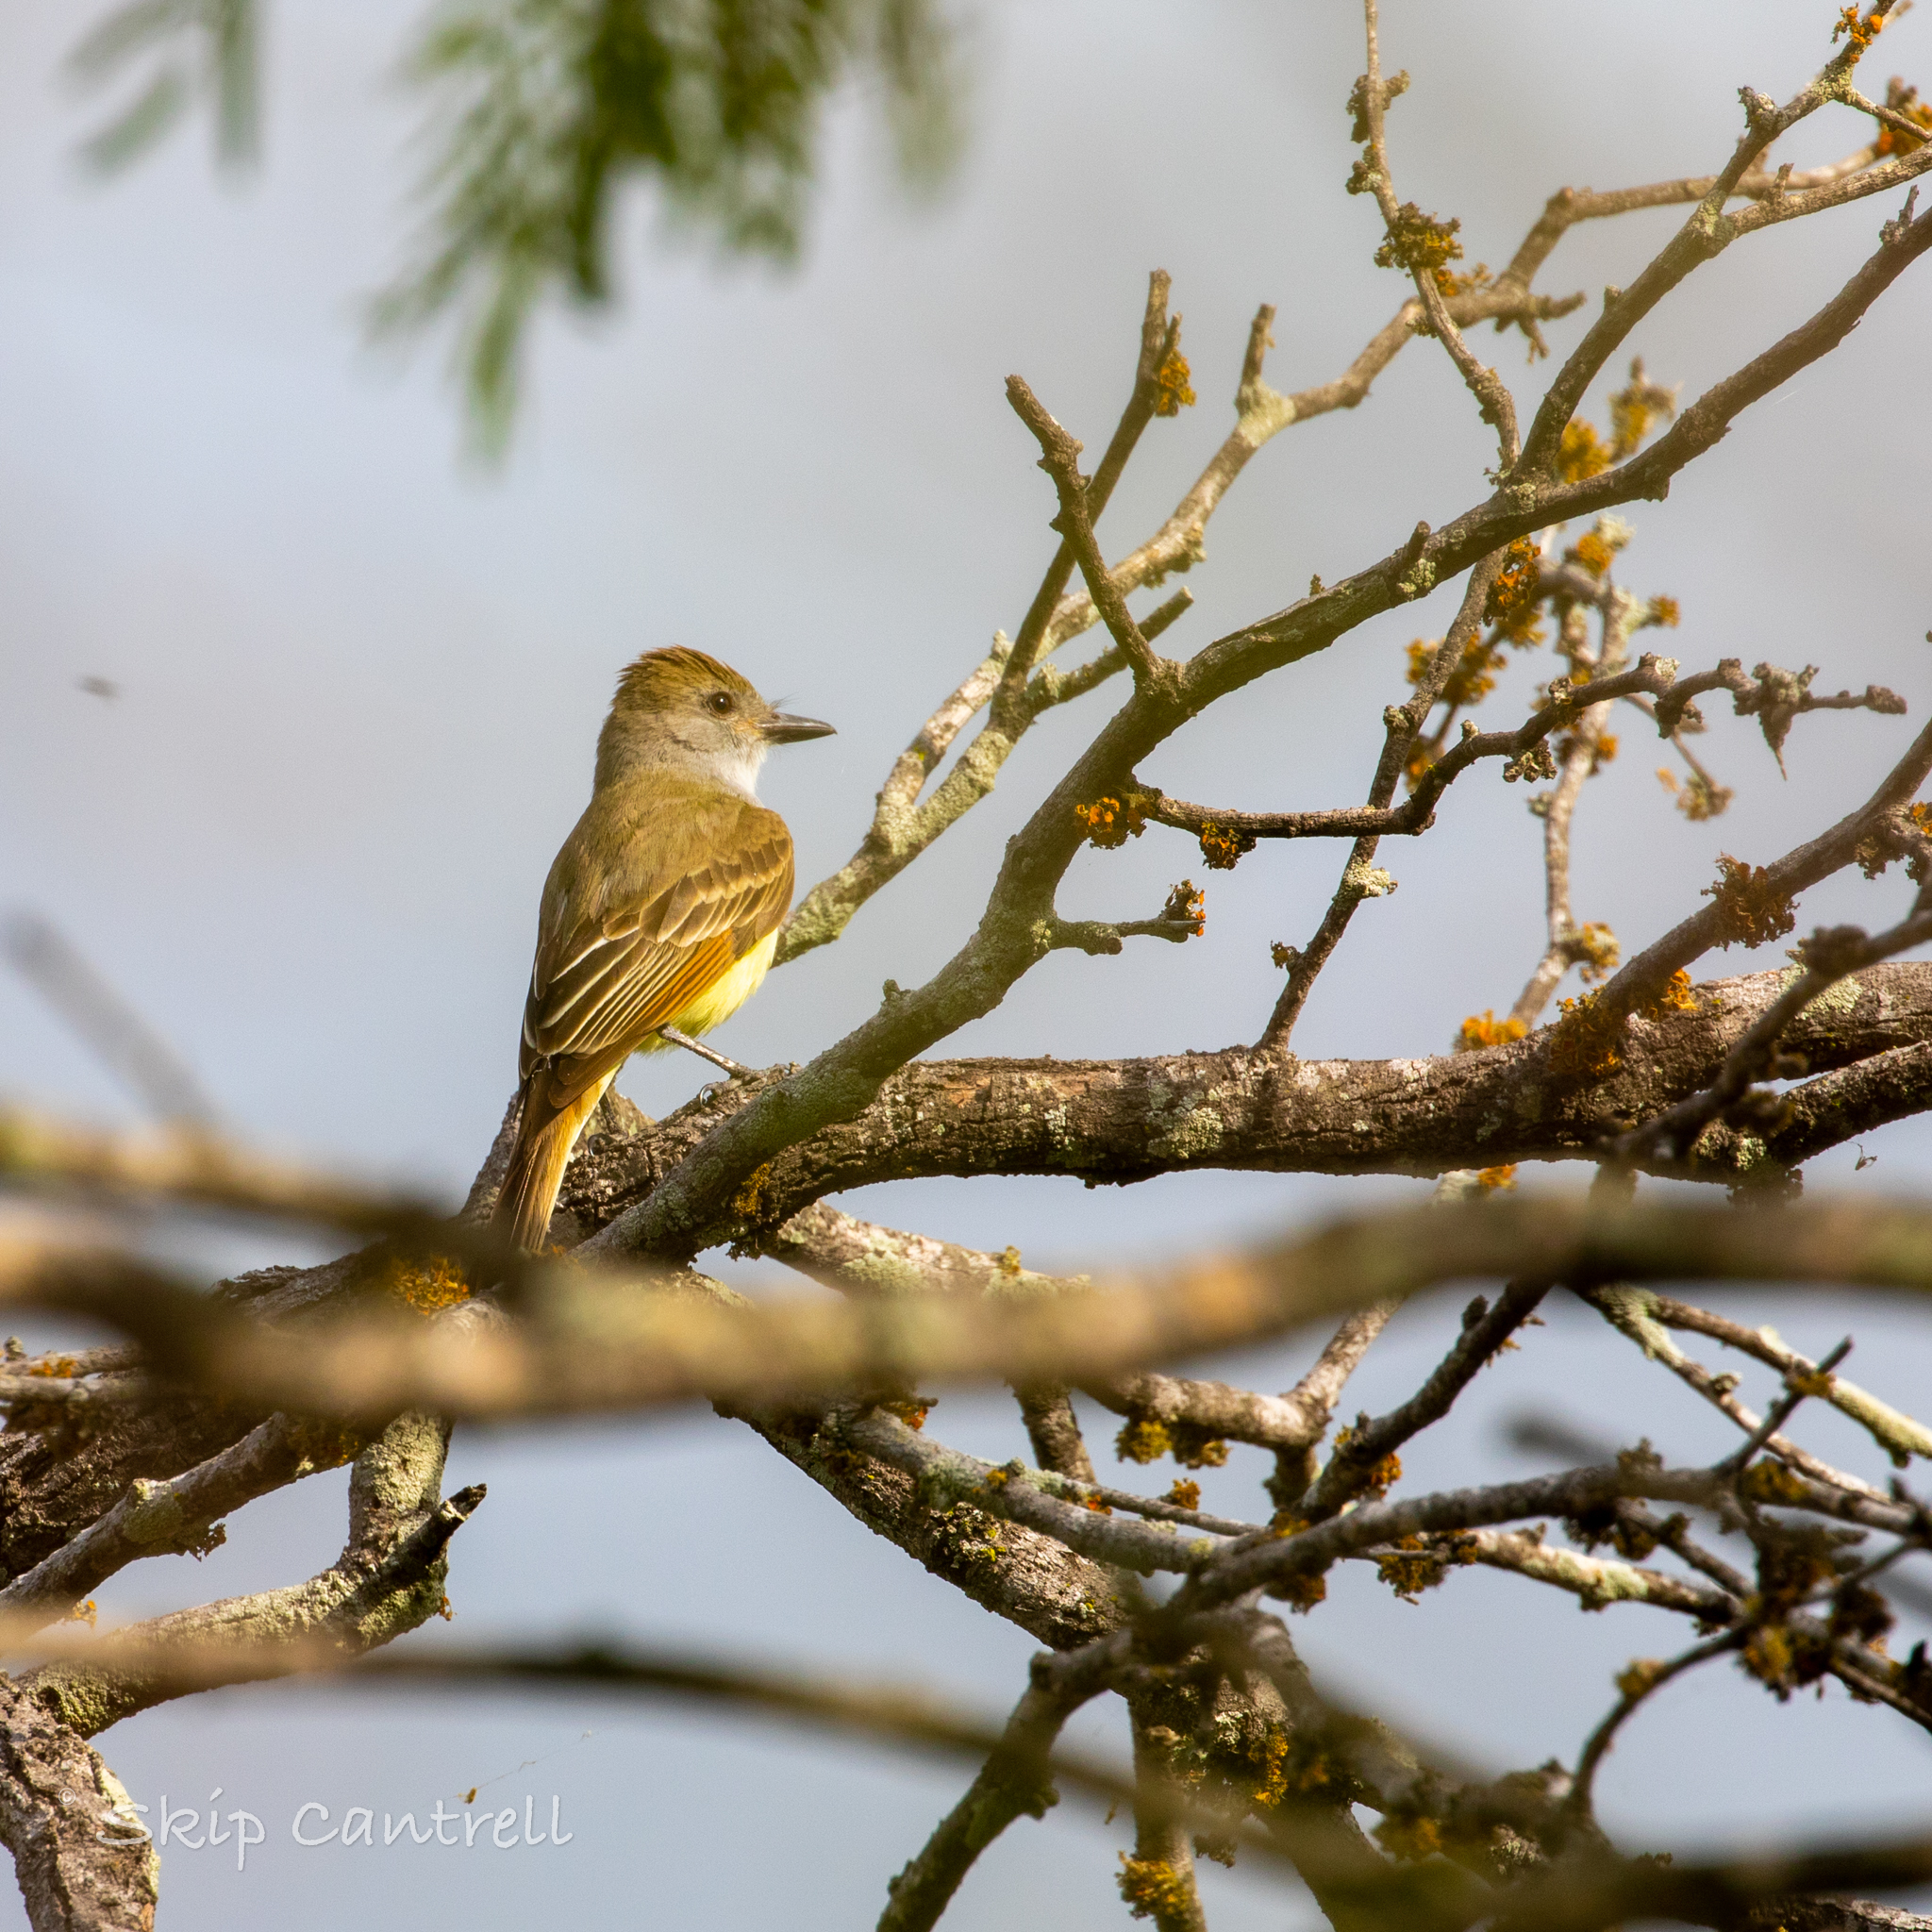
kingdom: Animalia
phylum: Chordata
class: Aves
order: Passeriformes
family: Tyrannidae
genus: Myiarchus
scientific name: Myiarchus tyrannulus
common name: Brown-crested flycatcher
